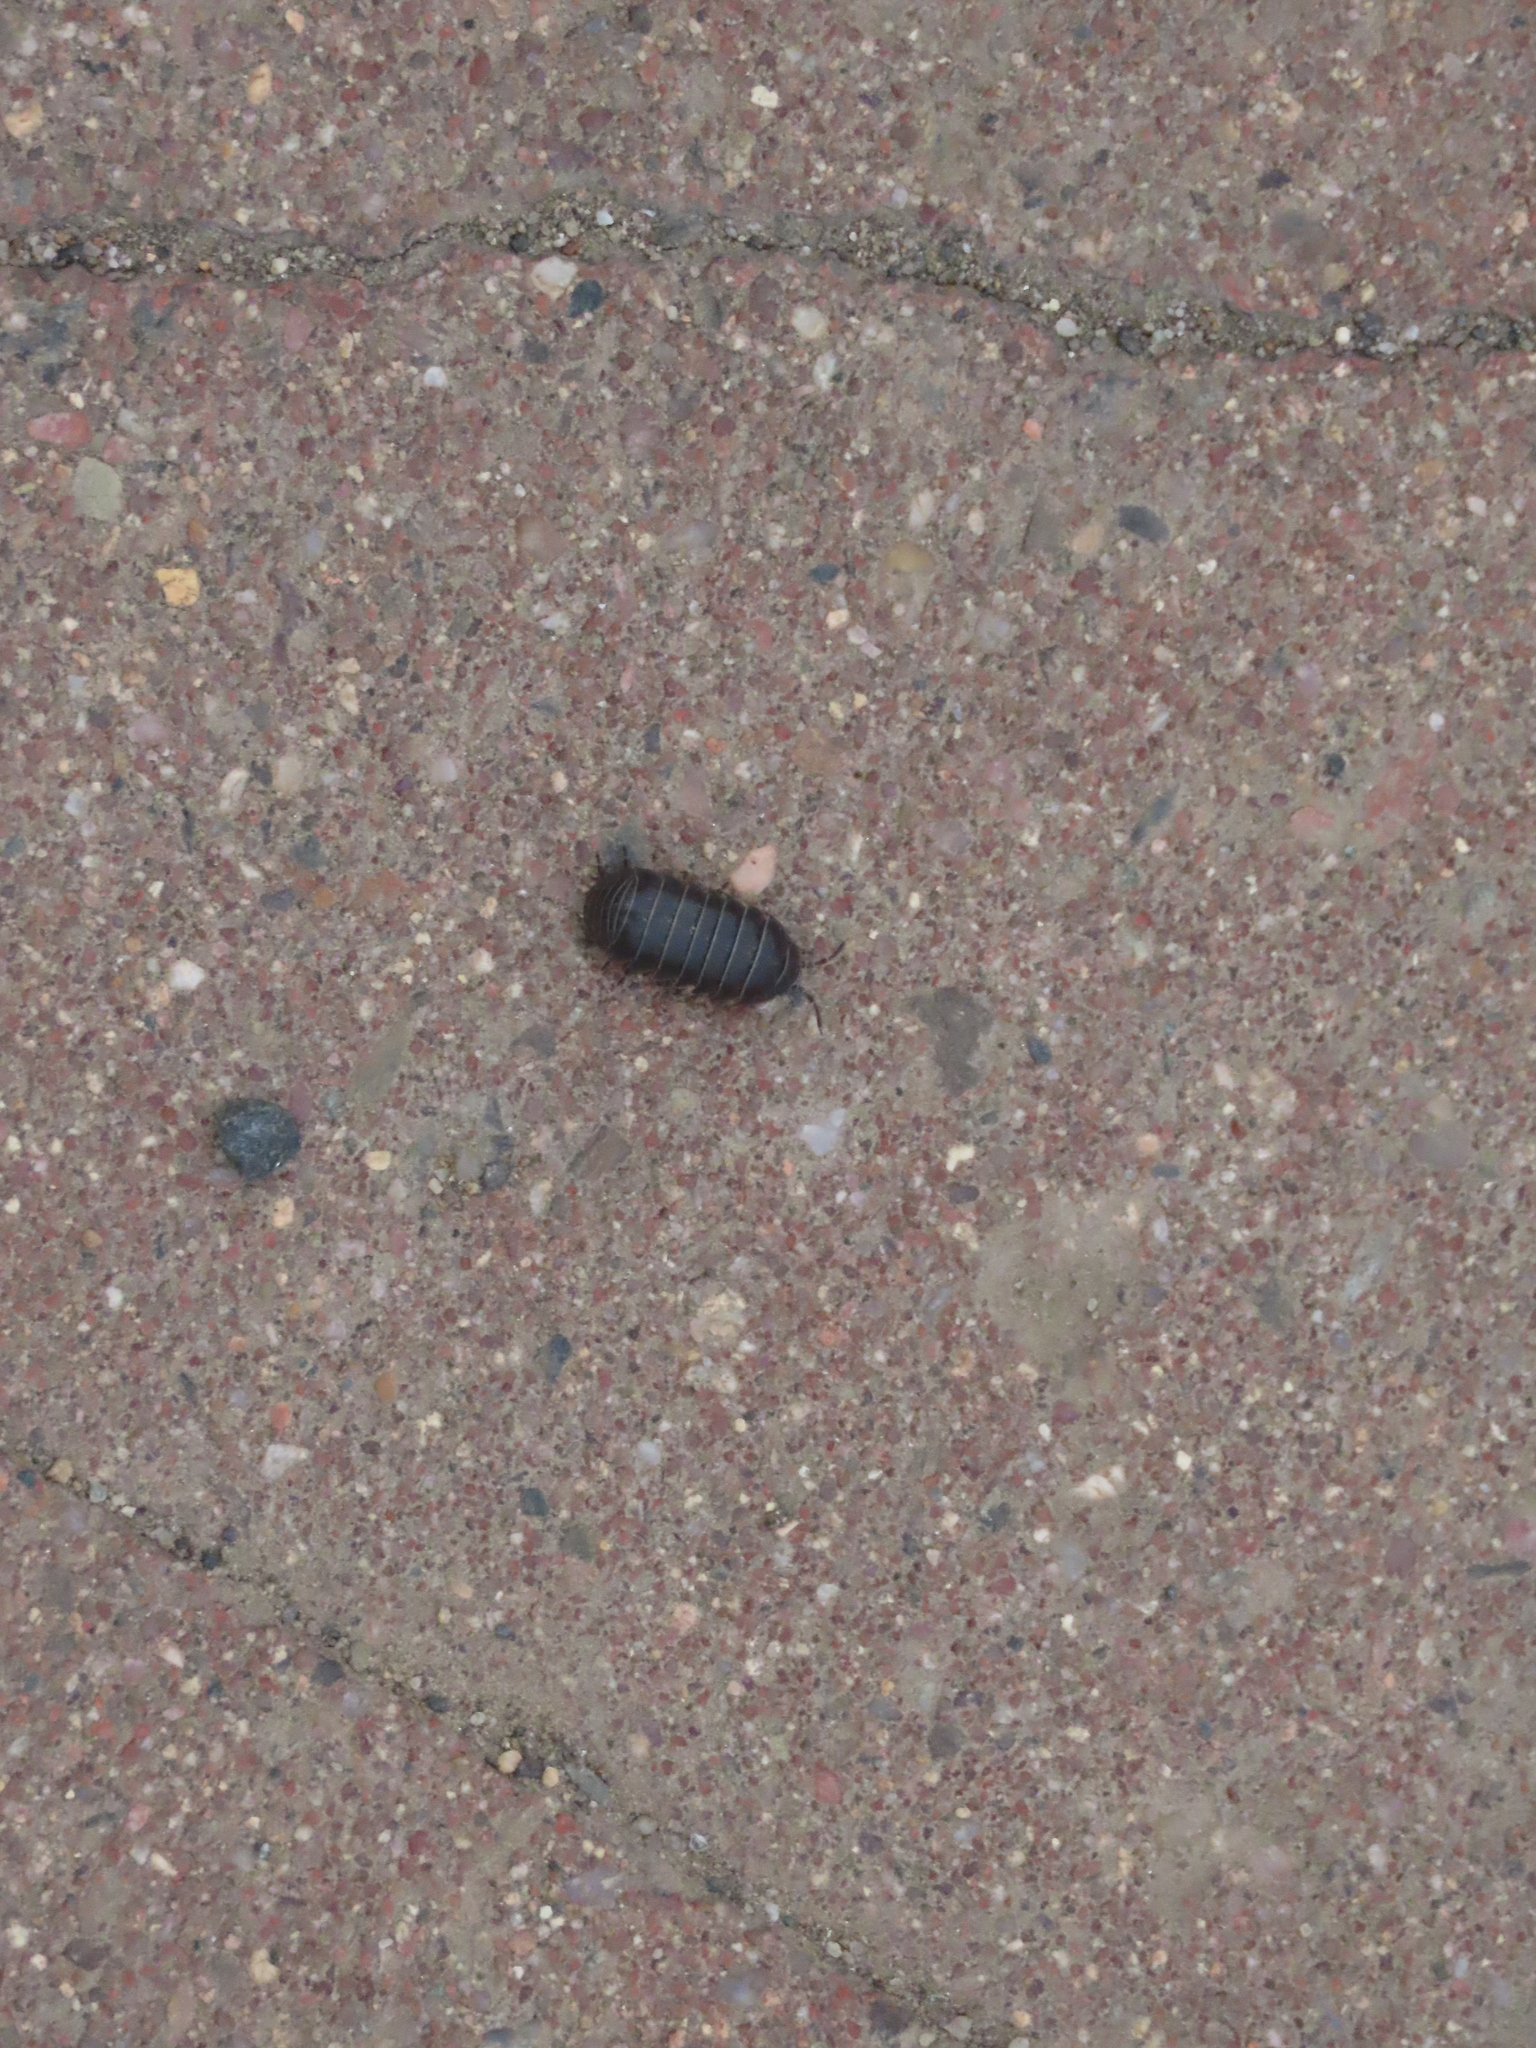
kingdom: Animalia
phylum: Arthropoda
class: Malacostraca
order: Isopoda
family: Armadillidiidae
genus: Armadillidium
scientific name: Armadillidium vulgare
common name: Common pill woodlouse
